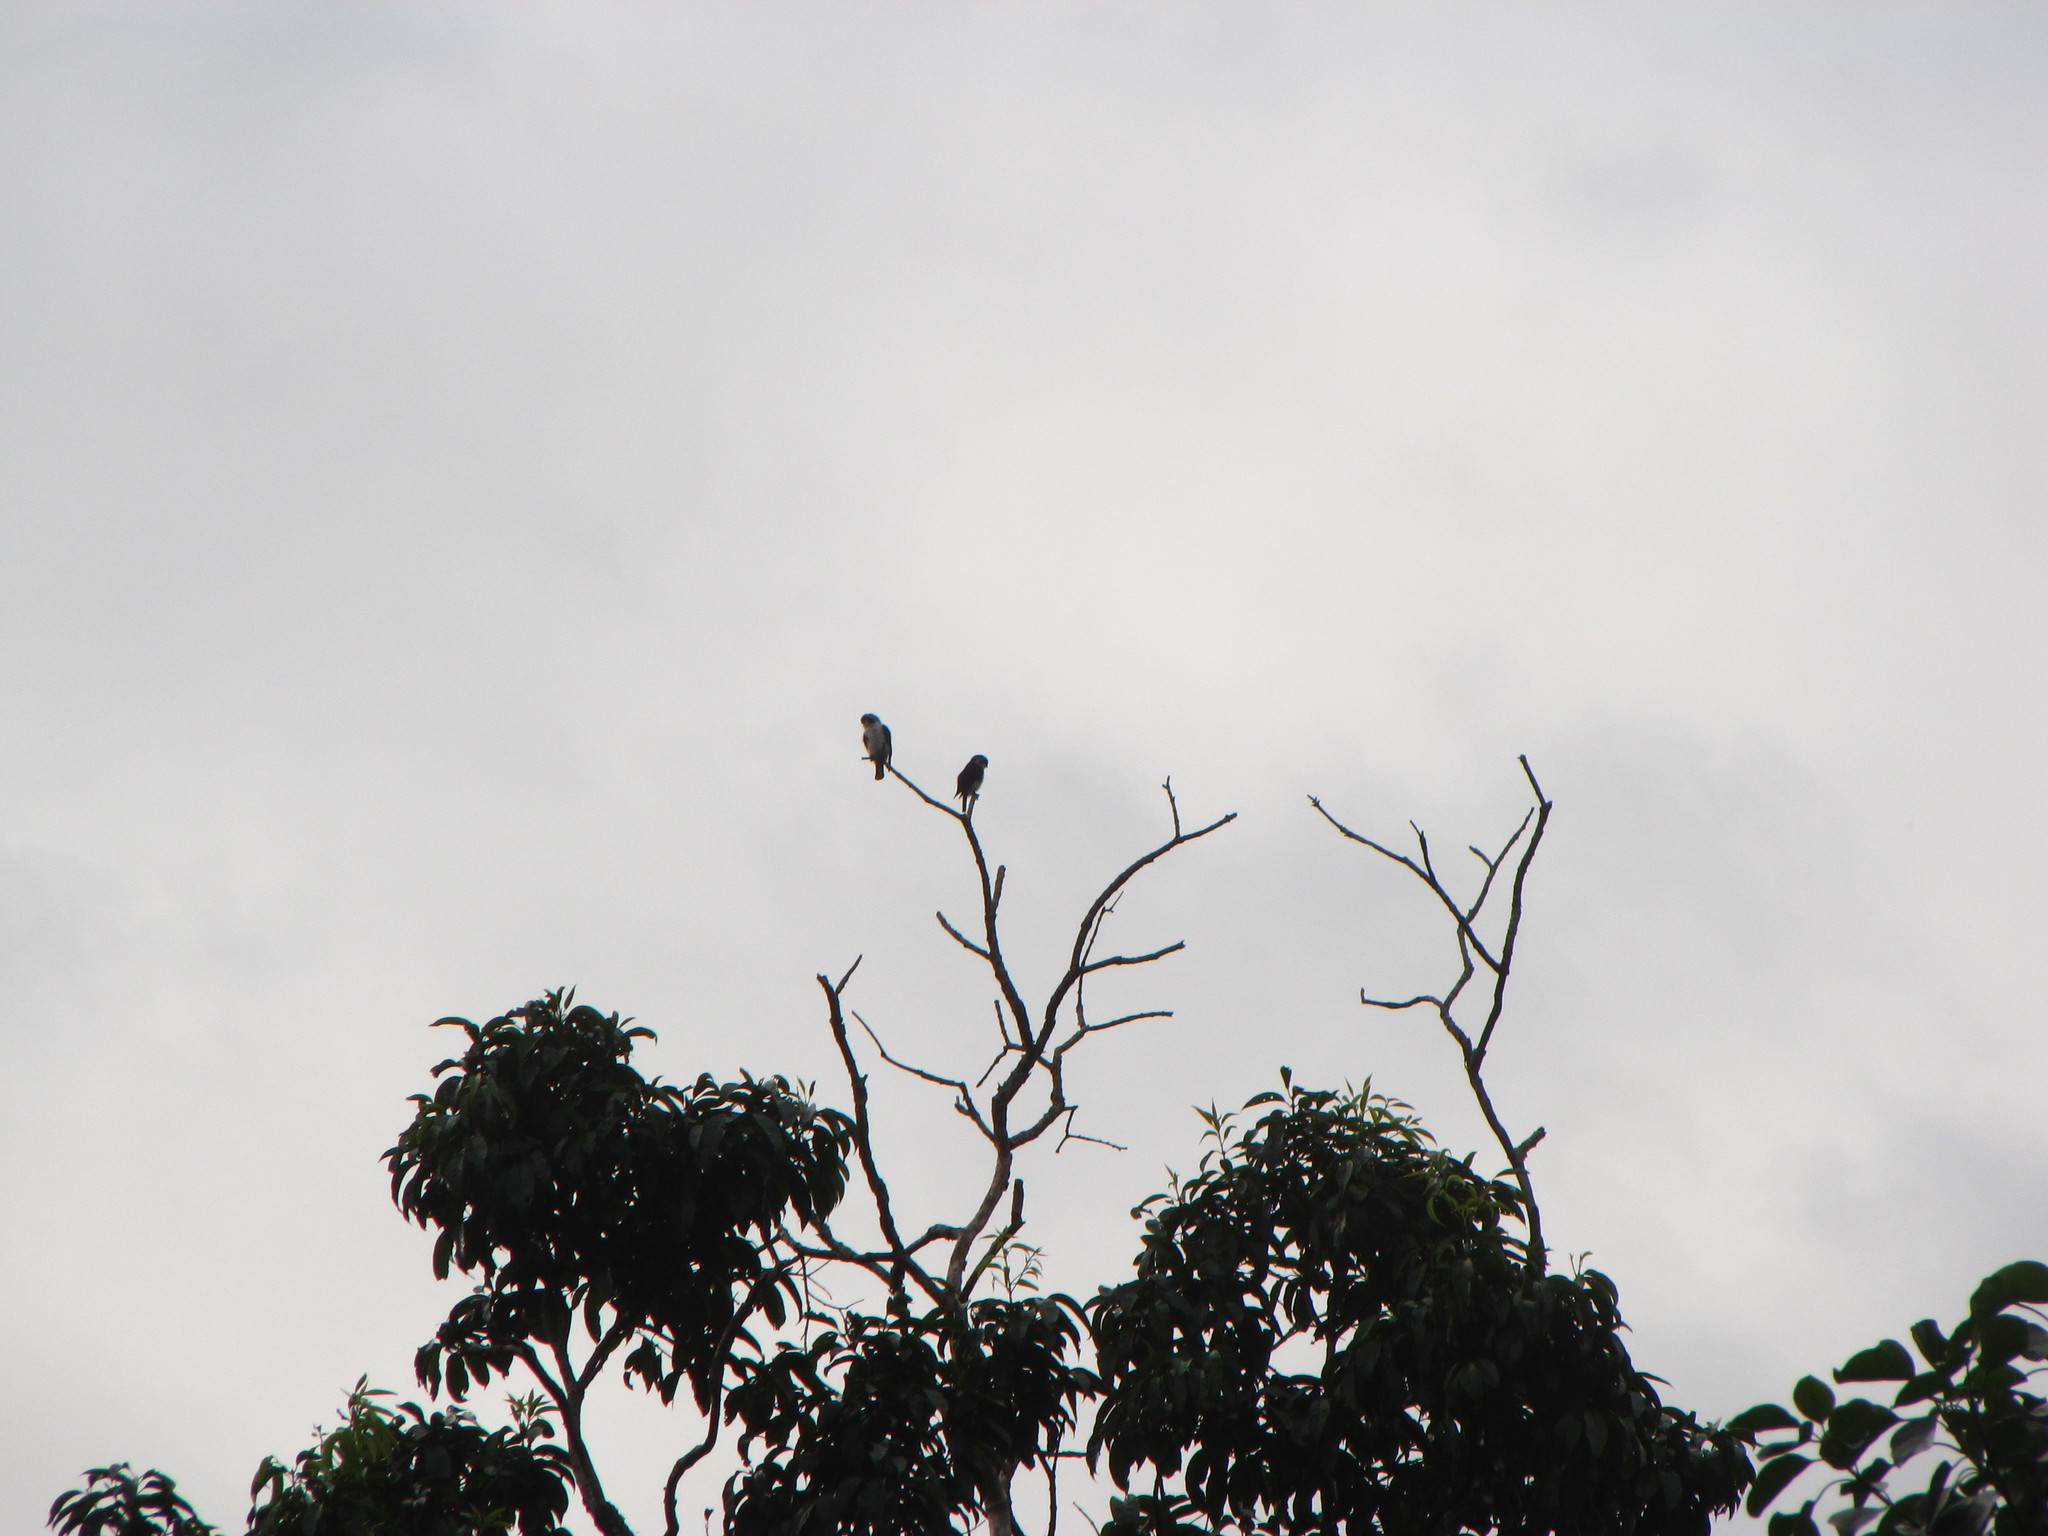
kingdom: Animalia
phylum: Chordata
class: Aves
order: Falconiformes
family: Falconidae
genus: Microhierax
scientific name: Microhierax melanoleucos
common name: Pied falconet
